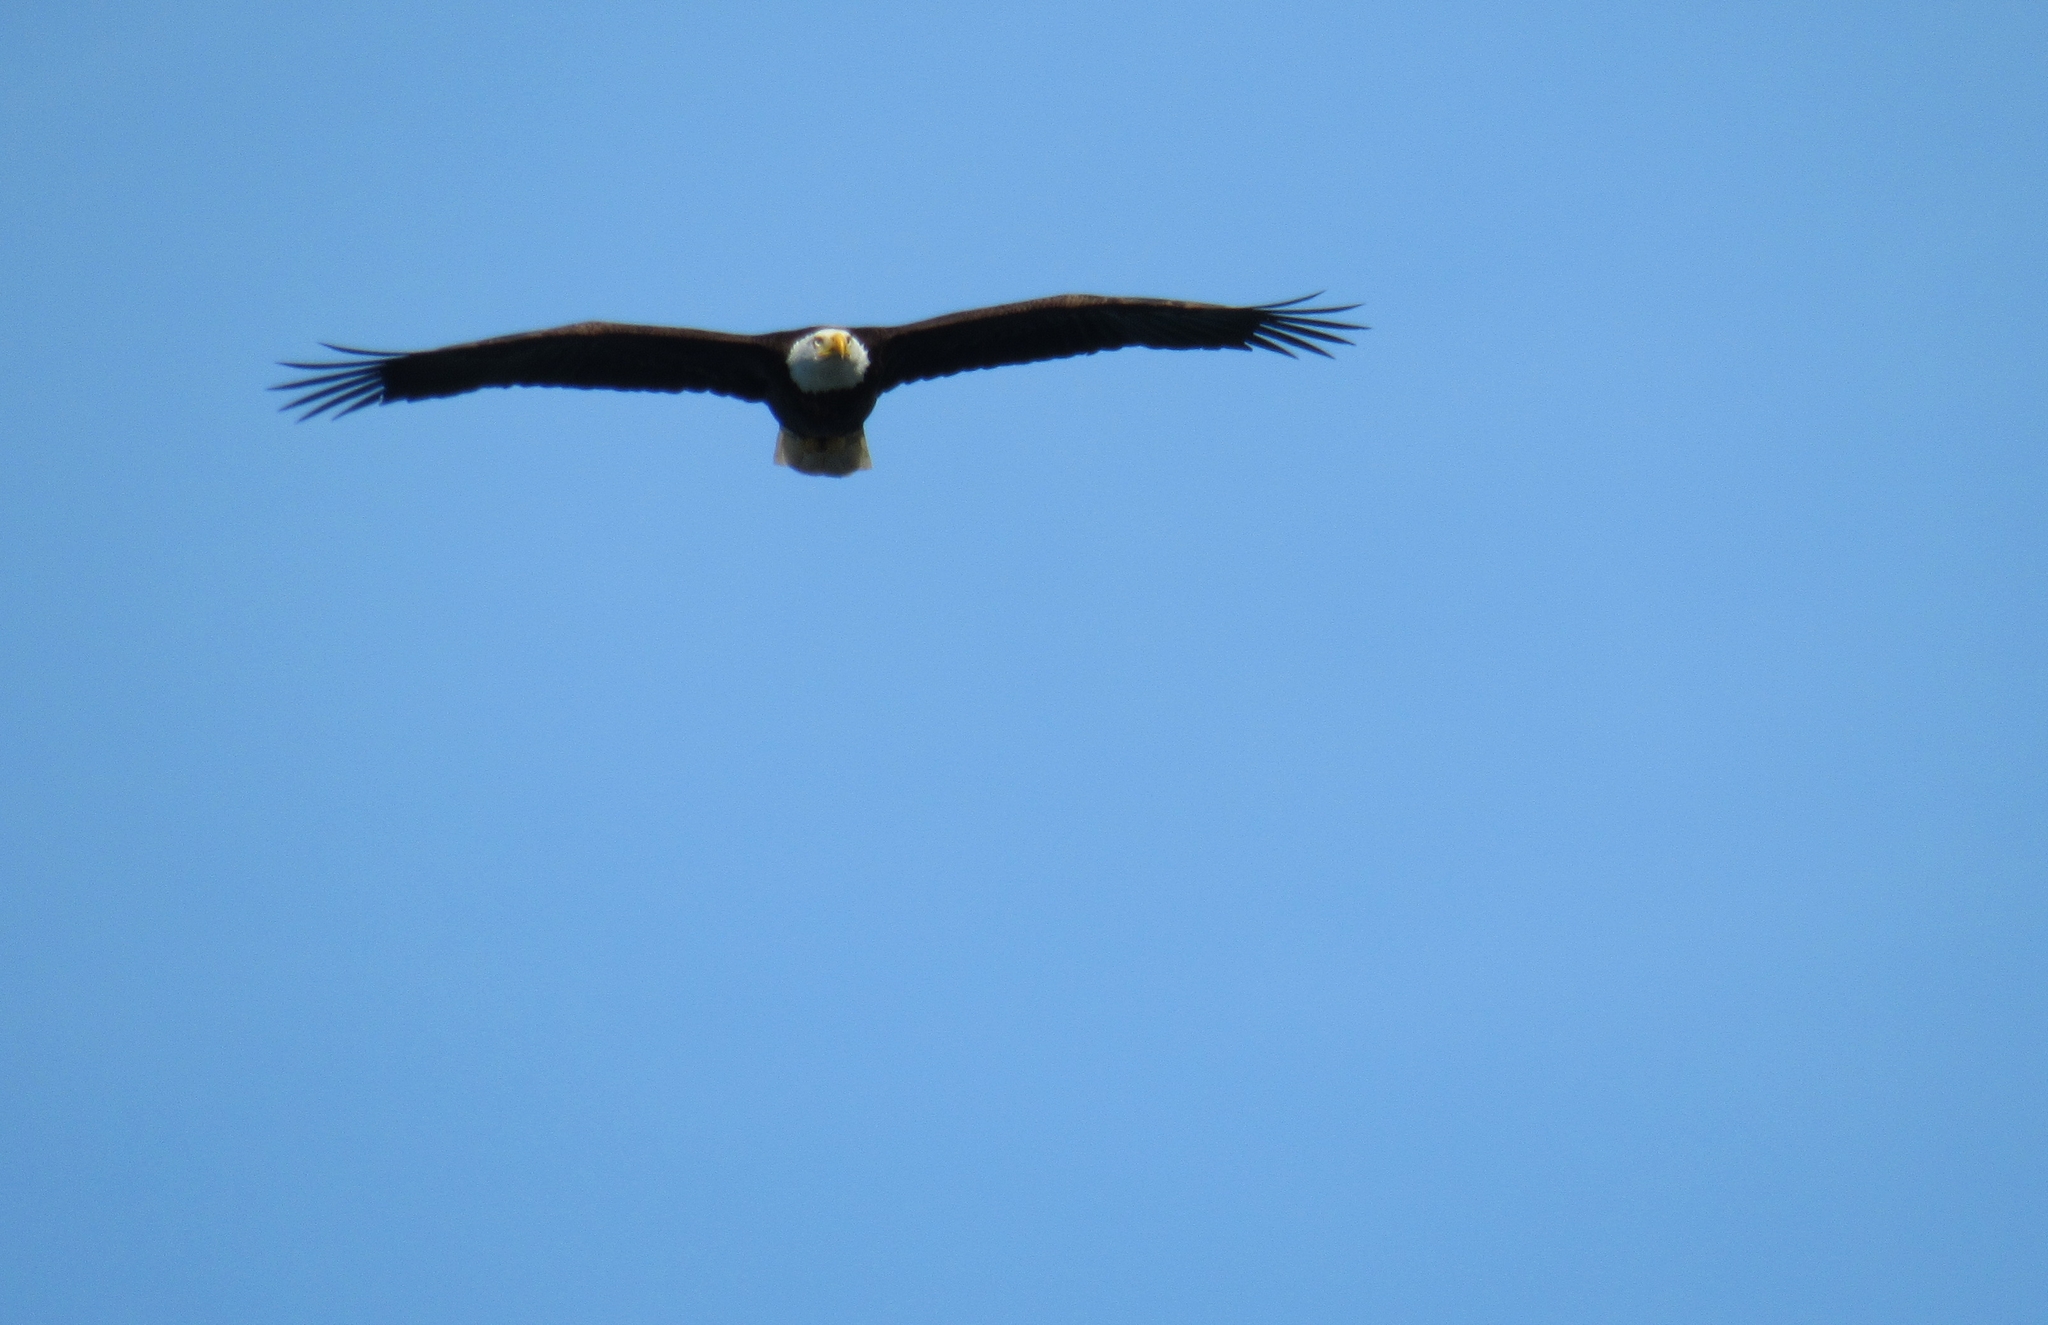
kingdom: Animalia
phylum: Chordata
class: Aves
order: Accipitriformes
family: Accipitridae
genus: Haliaeetus
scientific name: Haliaeetus leucocephalus
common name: Bald eagle
